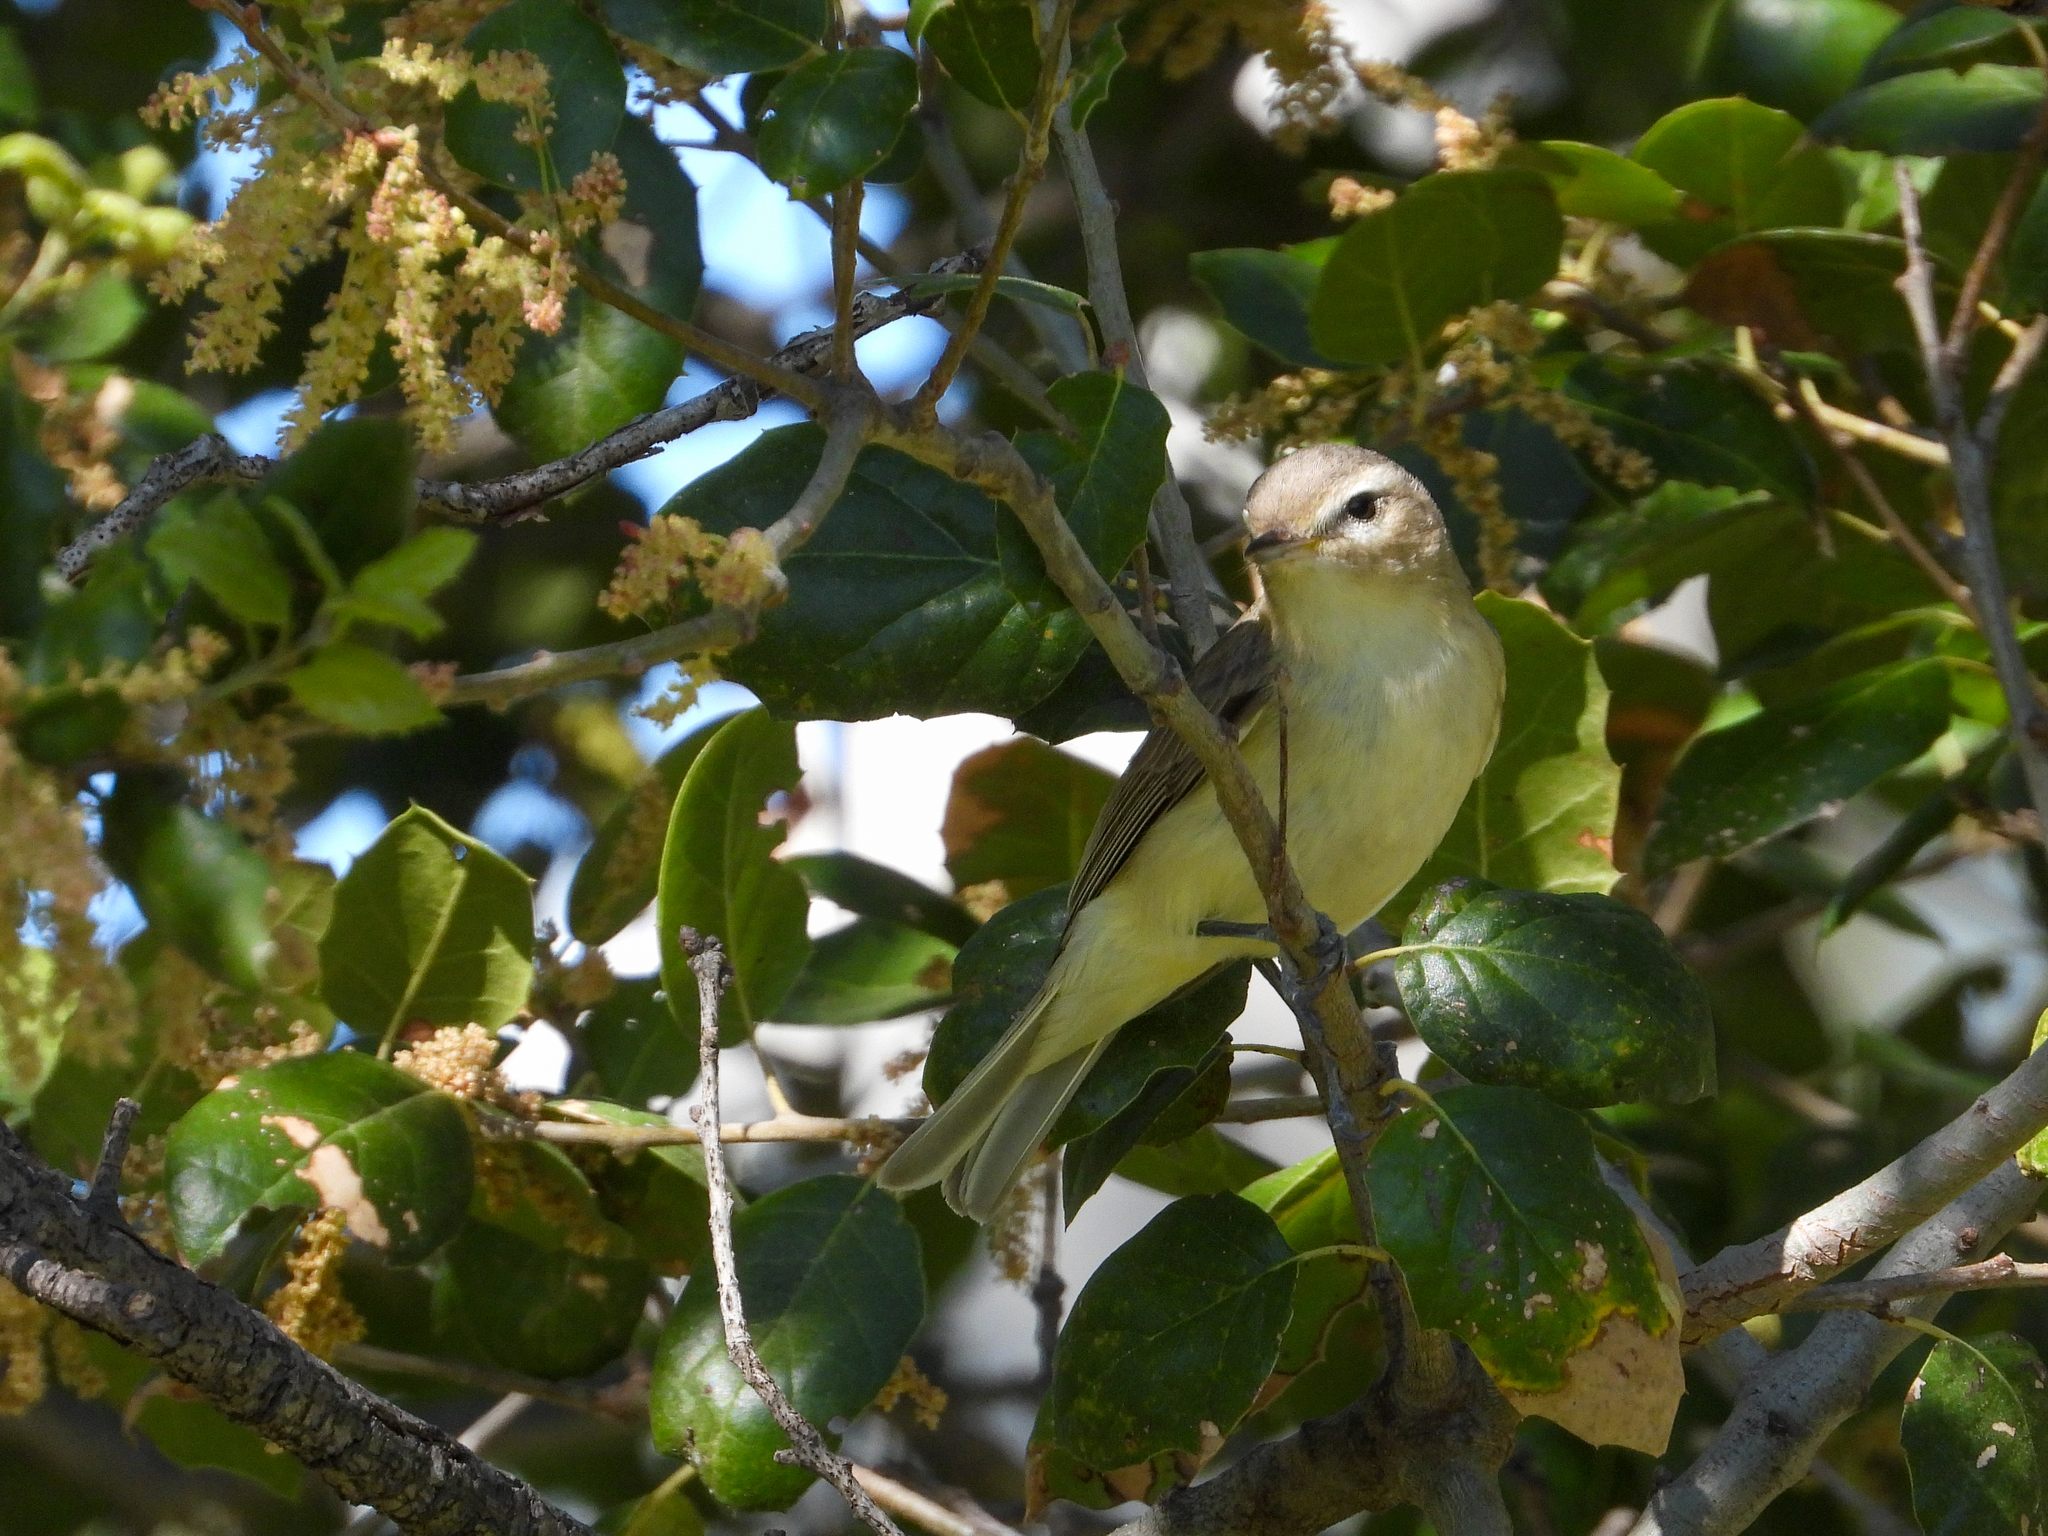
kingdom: Animalia
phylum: Chordata
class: Aves
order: Passeriformes
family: Vireonidae
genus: Vireo
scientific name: Vireo gilvus
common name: Warbling vireo
